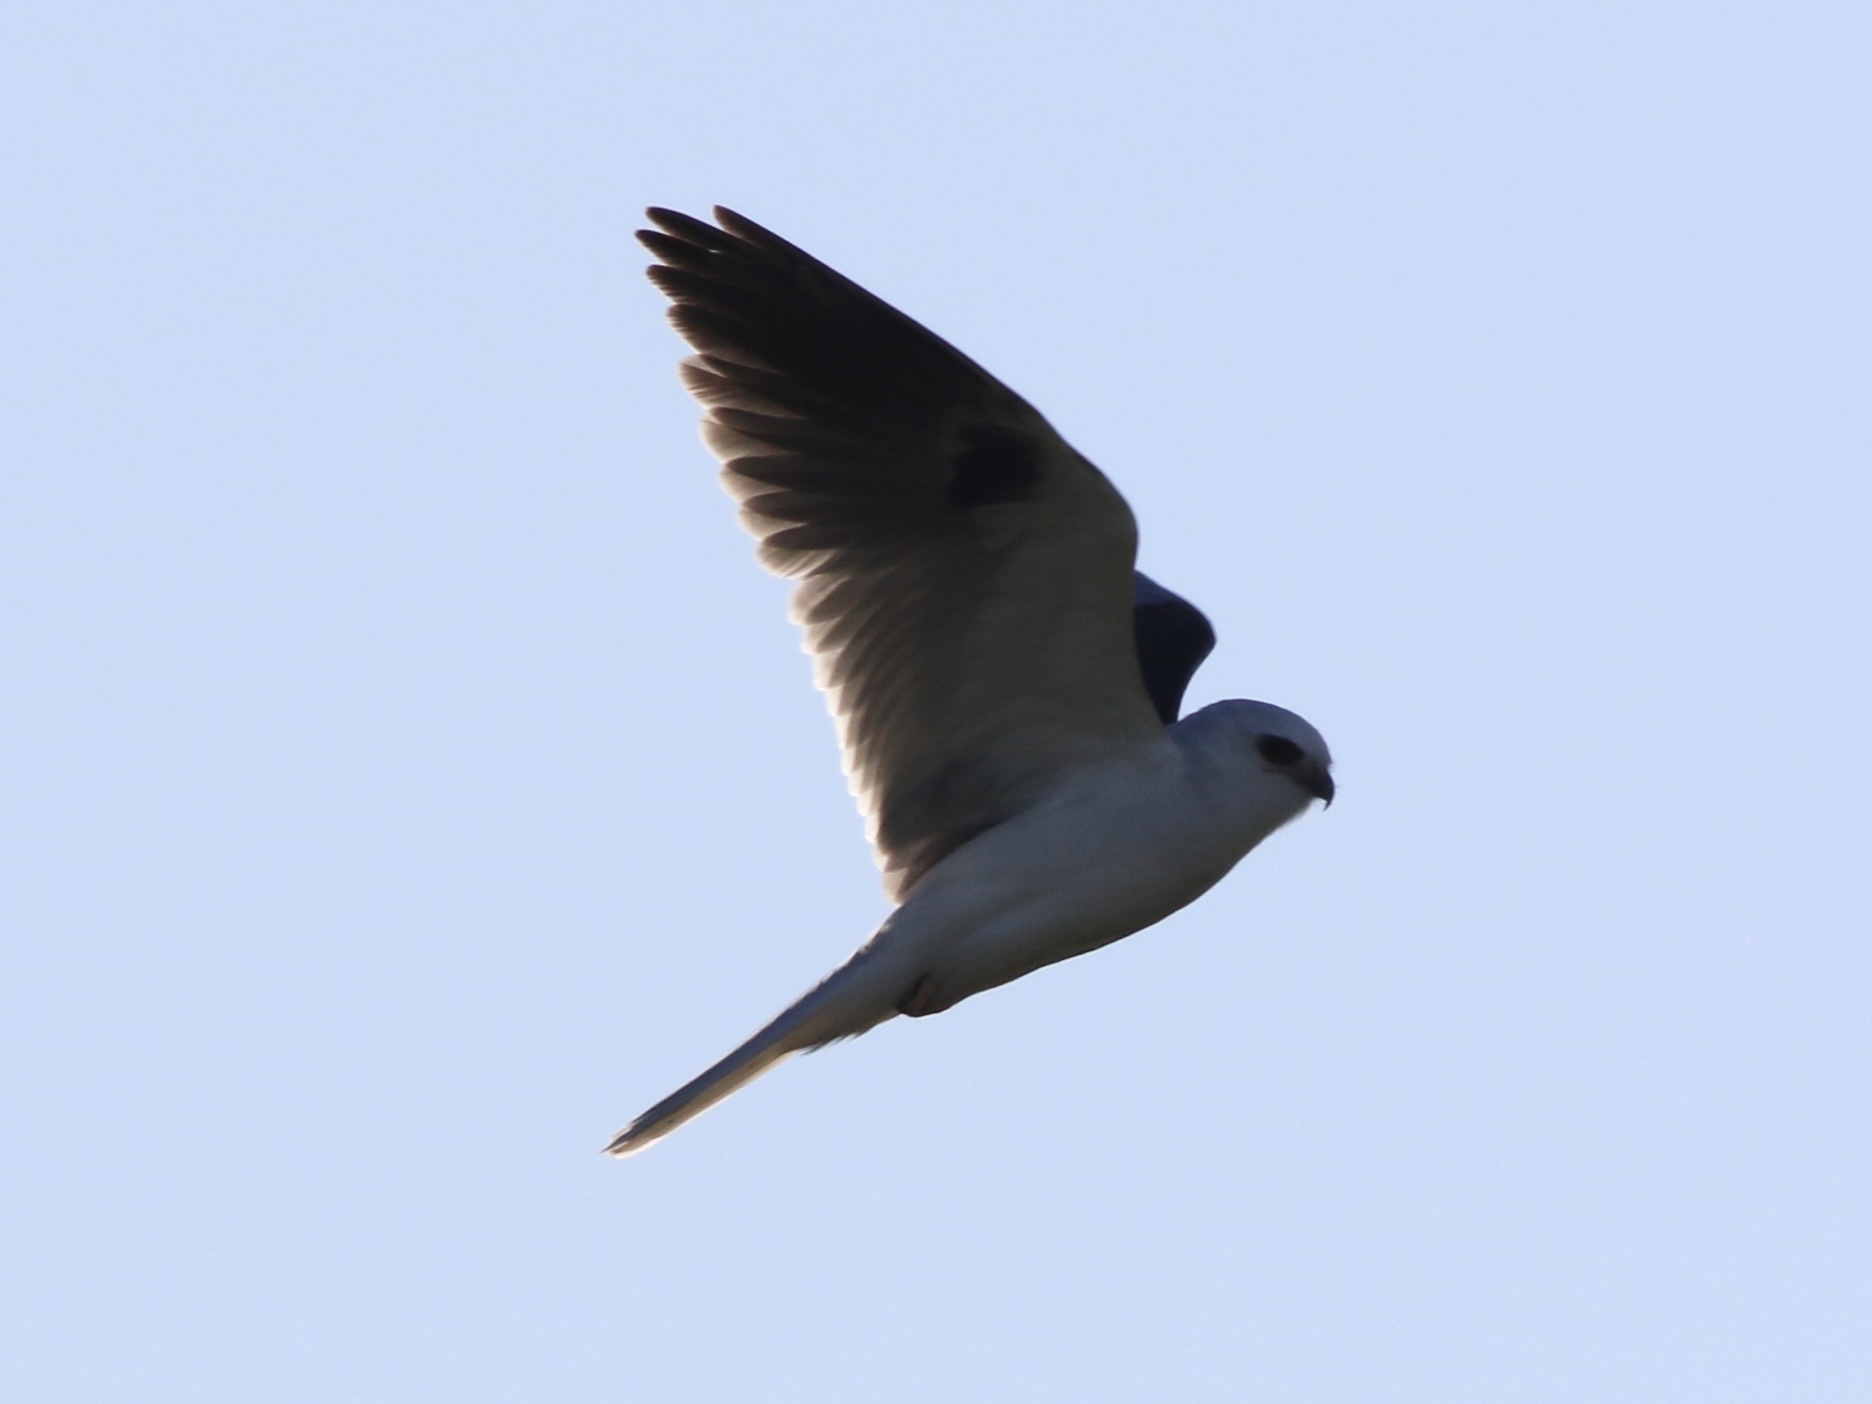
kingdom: Animalia
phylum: Chordata
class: Aves
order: Accipitriformes
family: Accipitridae
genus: Elanus
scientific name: Elanus leucurus
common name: White-tailed kite
